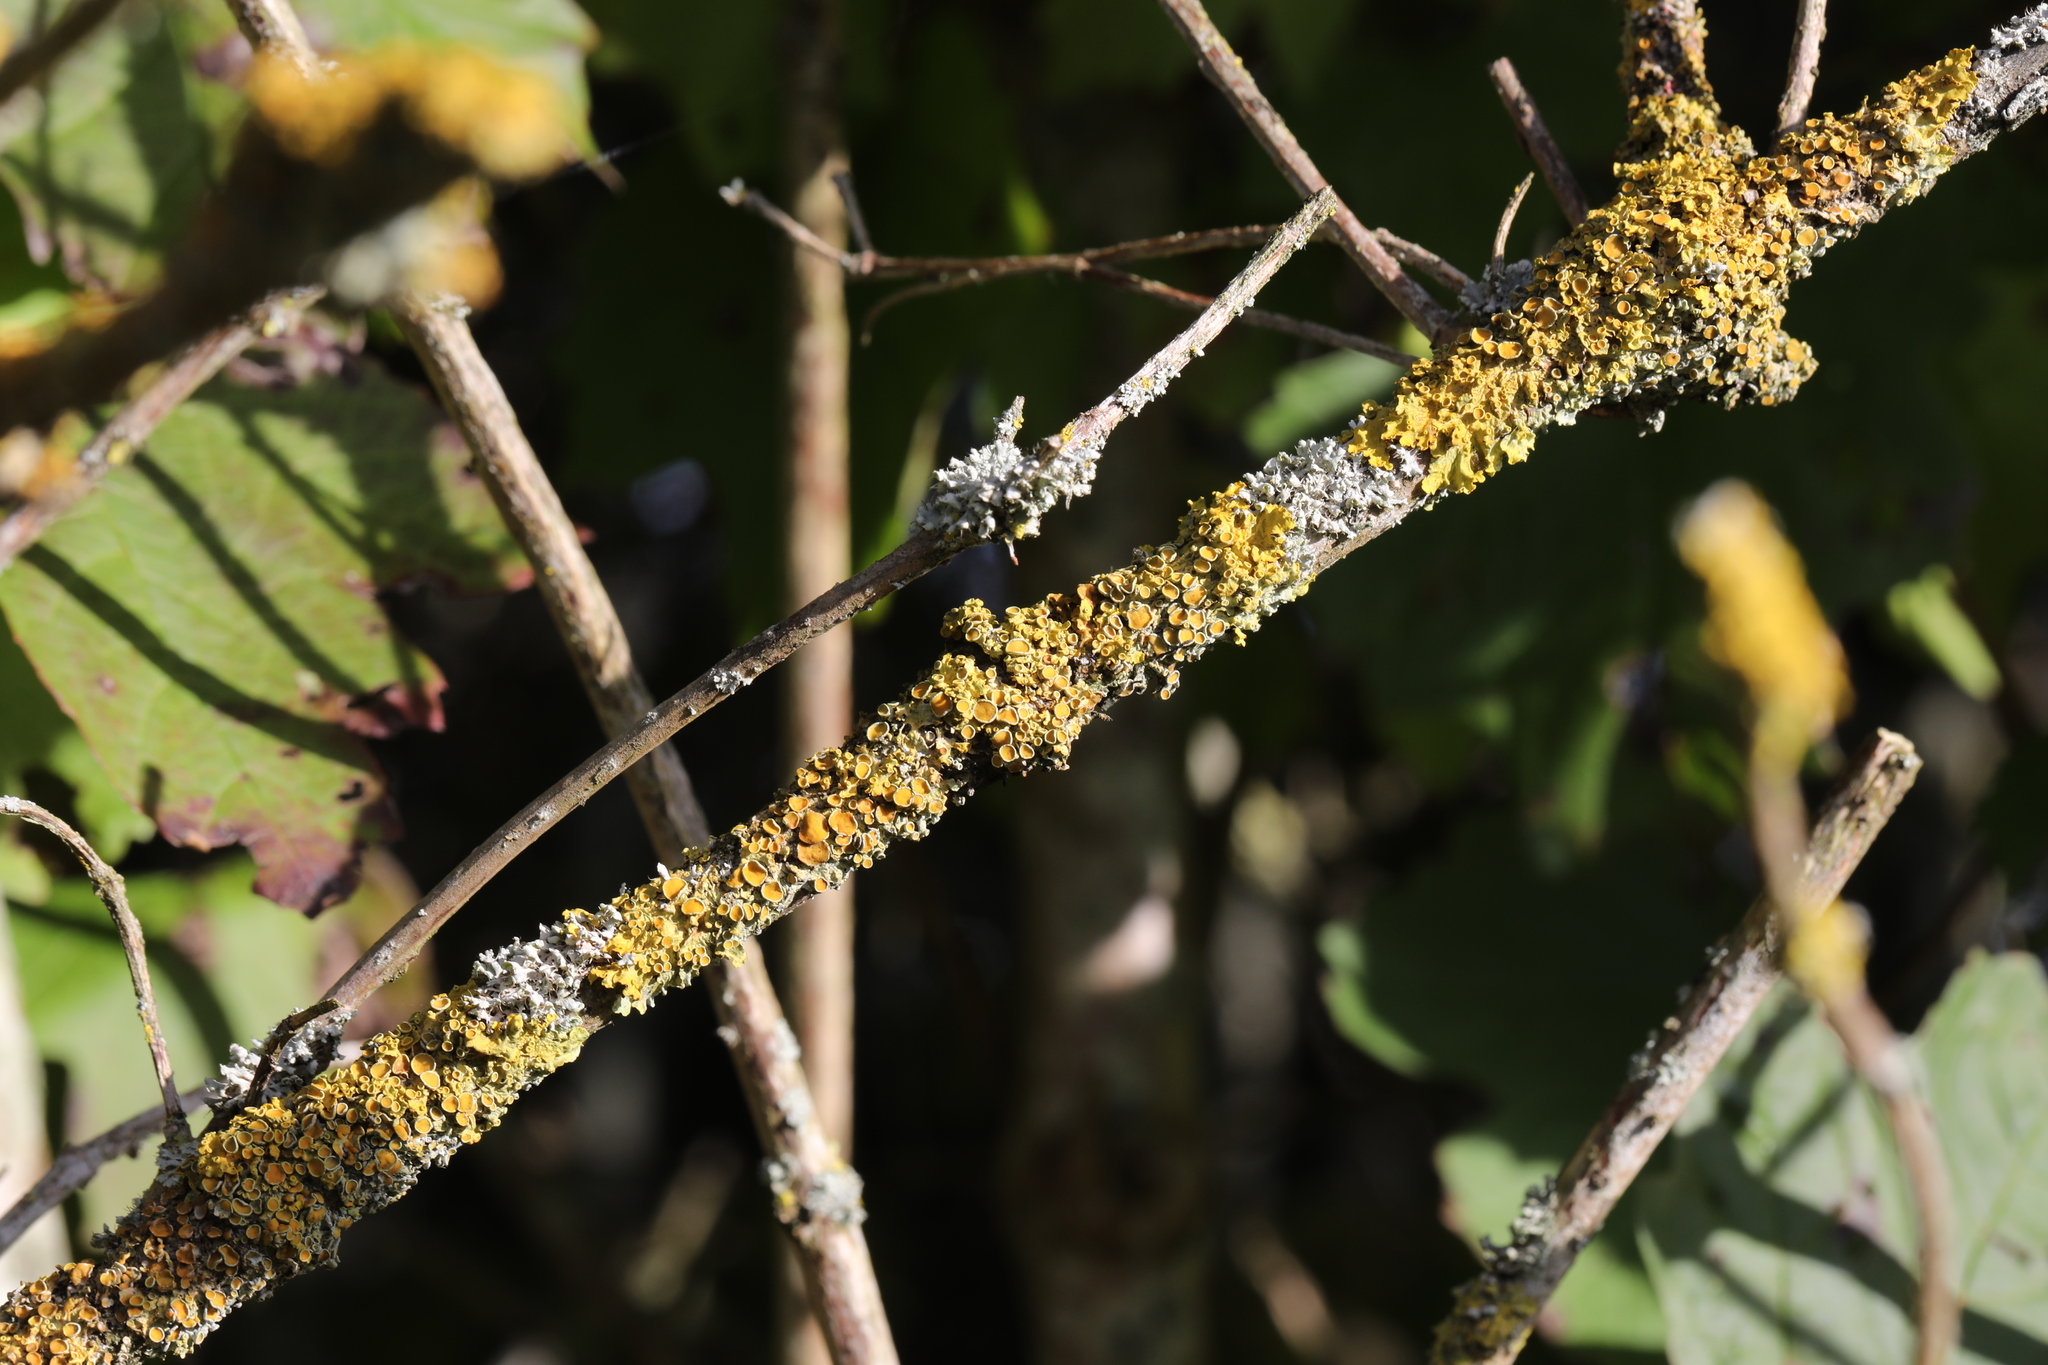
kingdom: Fungi
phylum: Ascomycota
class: Lecanoromycetes
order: Teloschistales
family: Teloschistaceae
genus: Xanthoria
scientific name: Xanthoria parietina
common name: Common orange lichen
